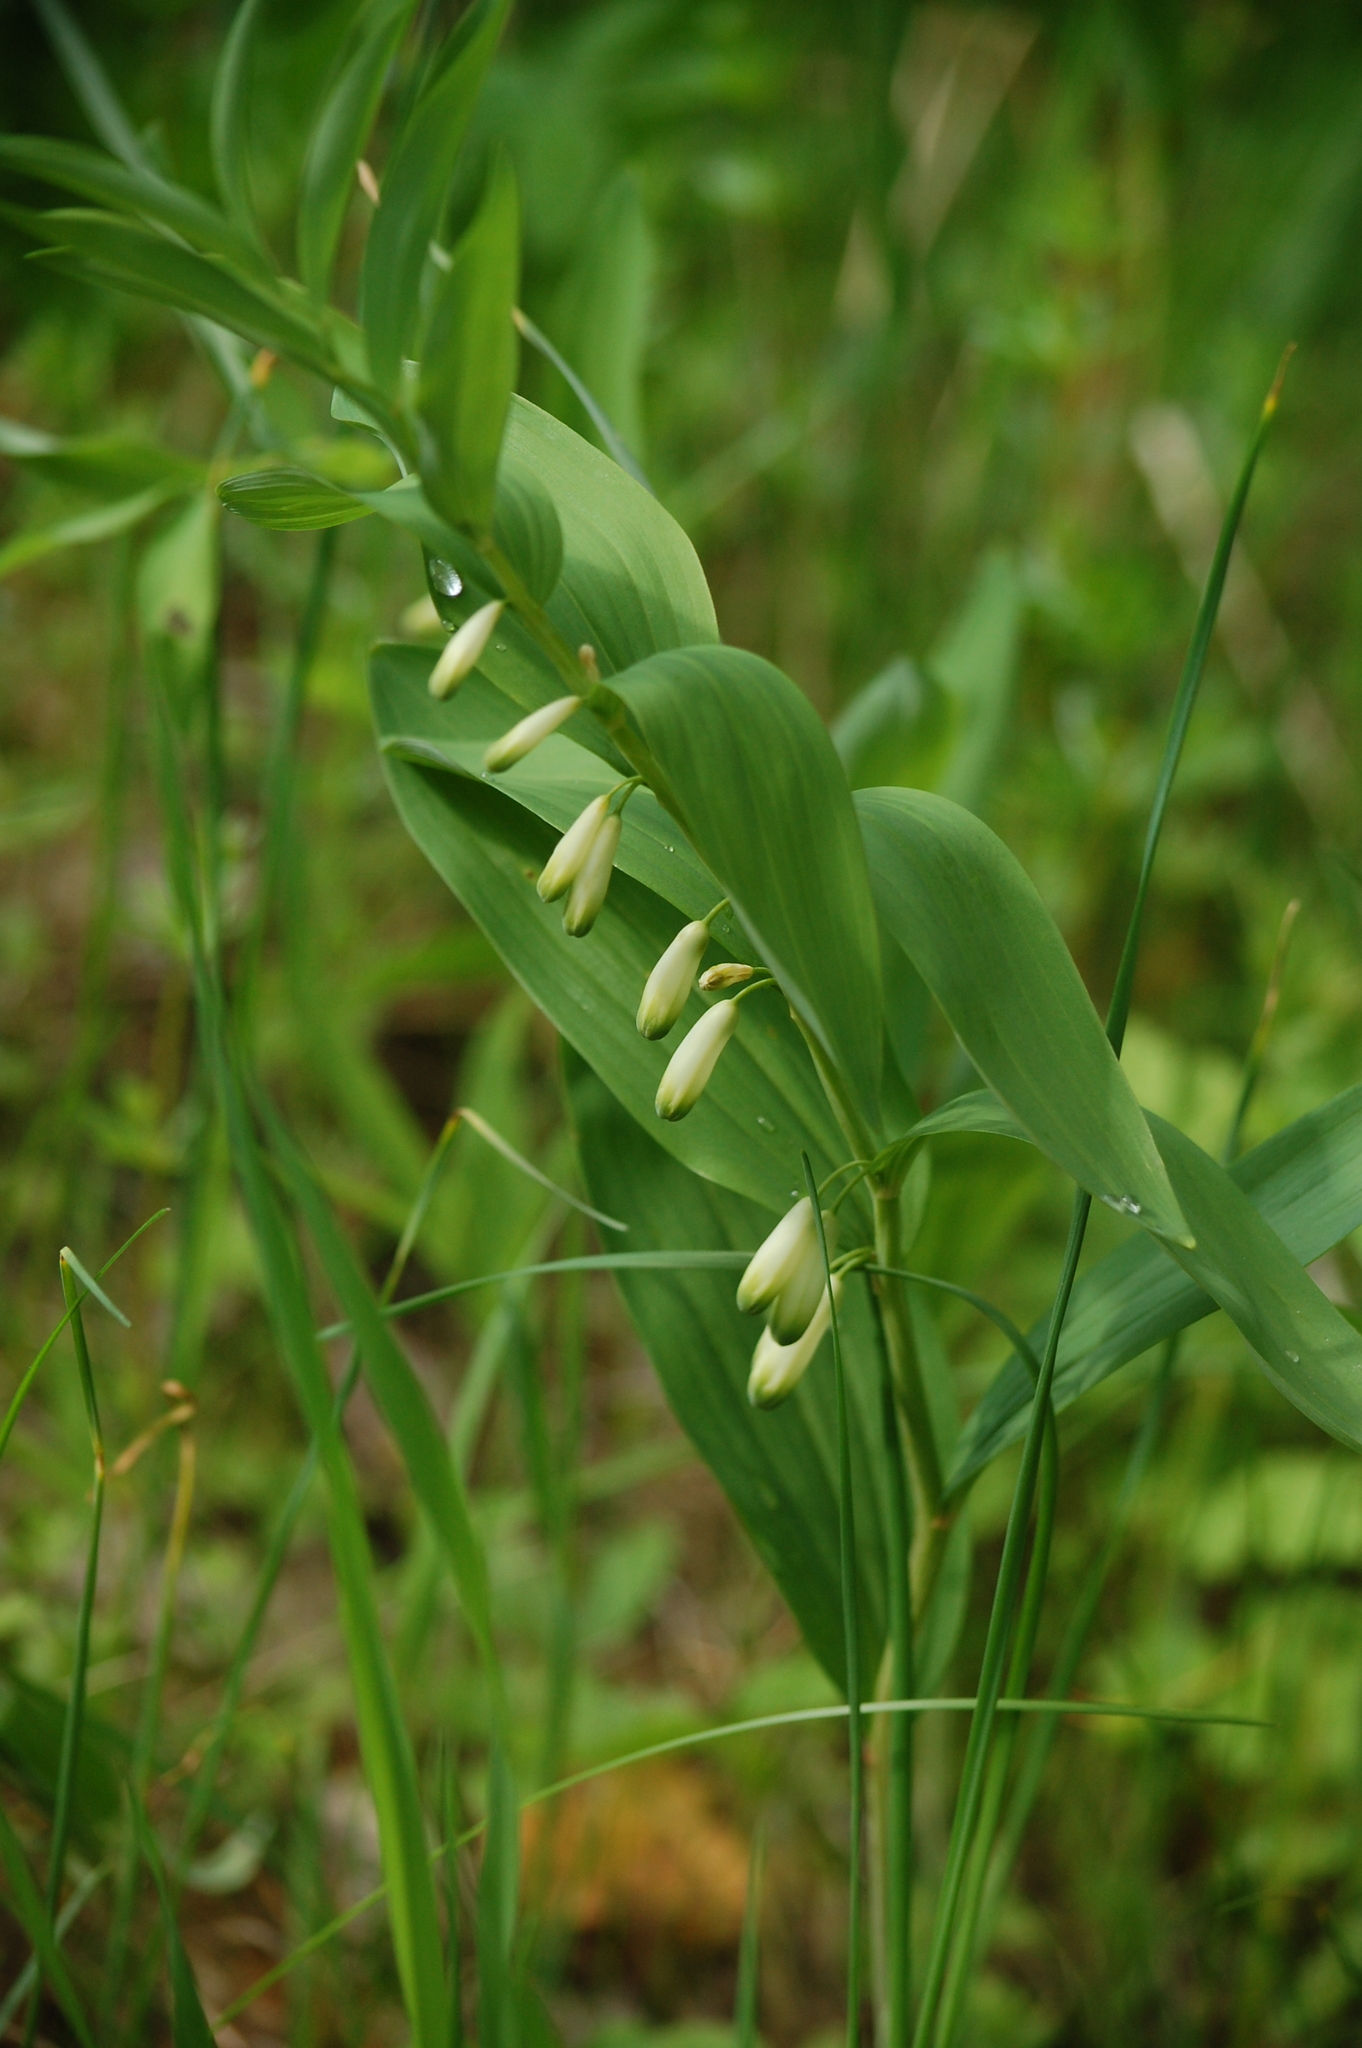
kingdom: Plantae
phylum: Tracheophyta
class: Liliopsida
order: Asparagales
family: Asparagaceae
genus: Polygonatum
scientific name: Polygonatum odoratum
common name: Angular solomon's-seal
